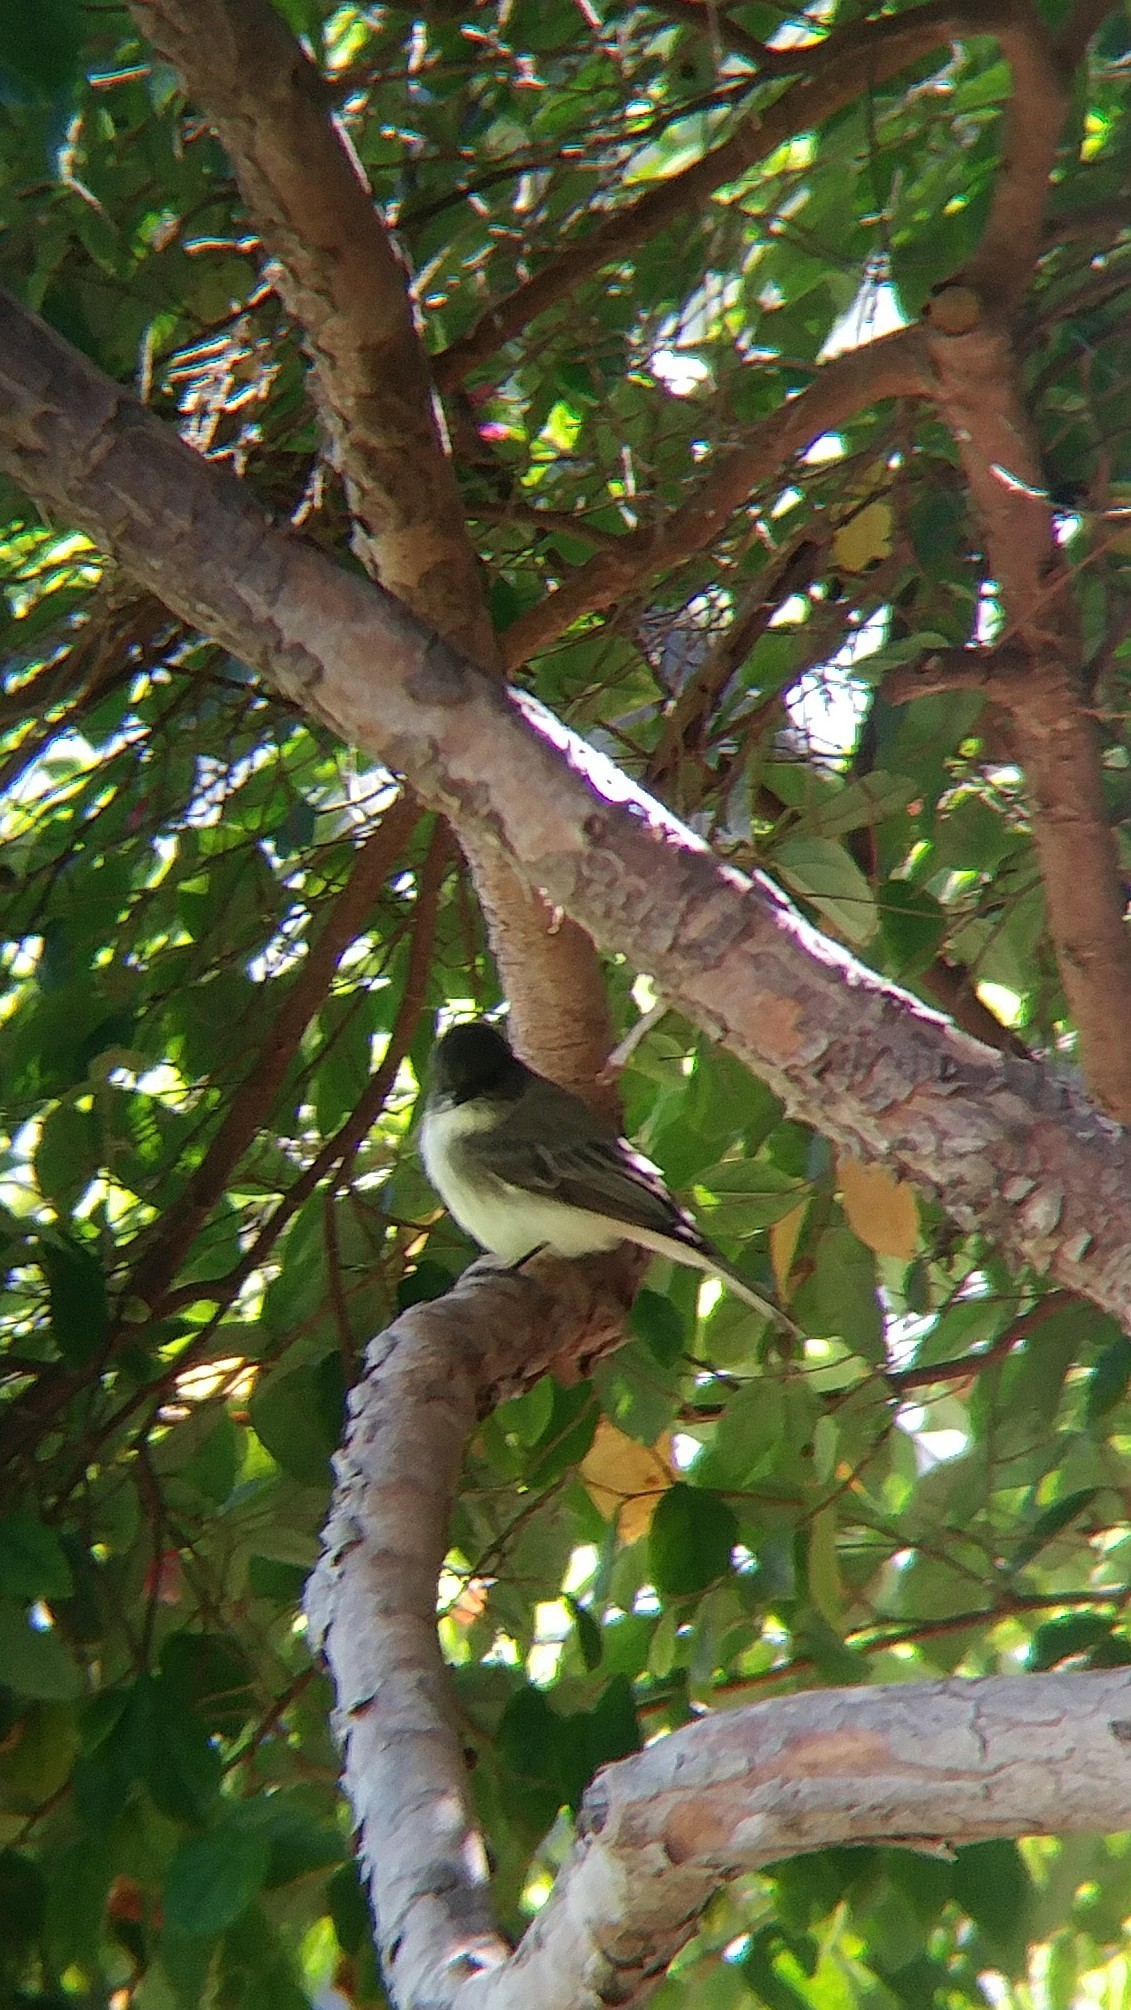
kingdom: Animalia
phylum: Chordata
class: Aves
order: Passeriformes
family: Tyrannidae
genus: Sayornis
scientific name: Sayornis phoebe
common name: Eastern phoebe
